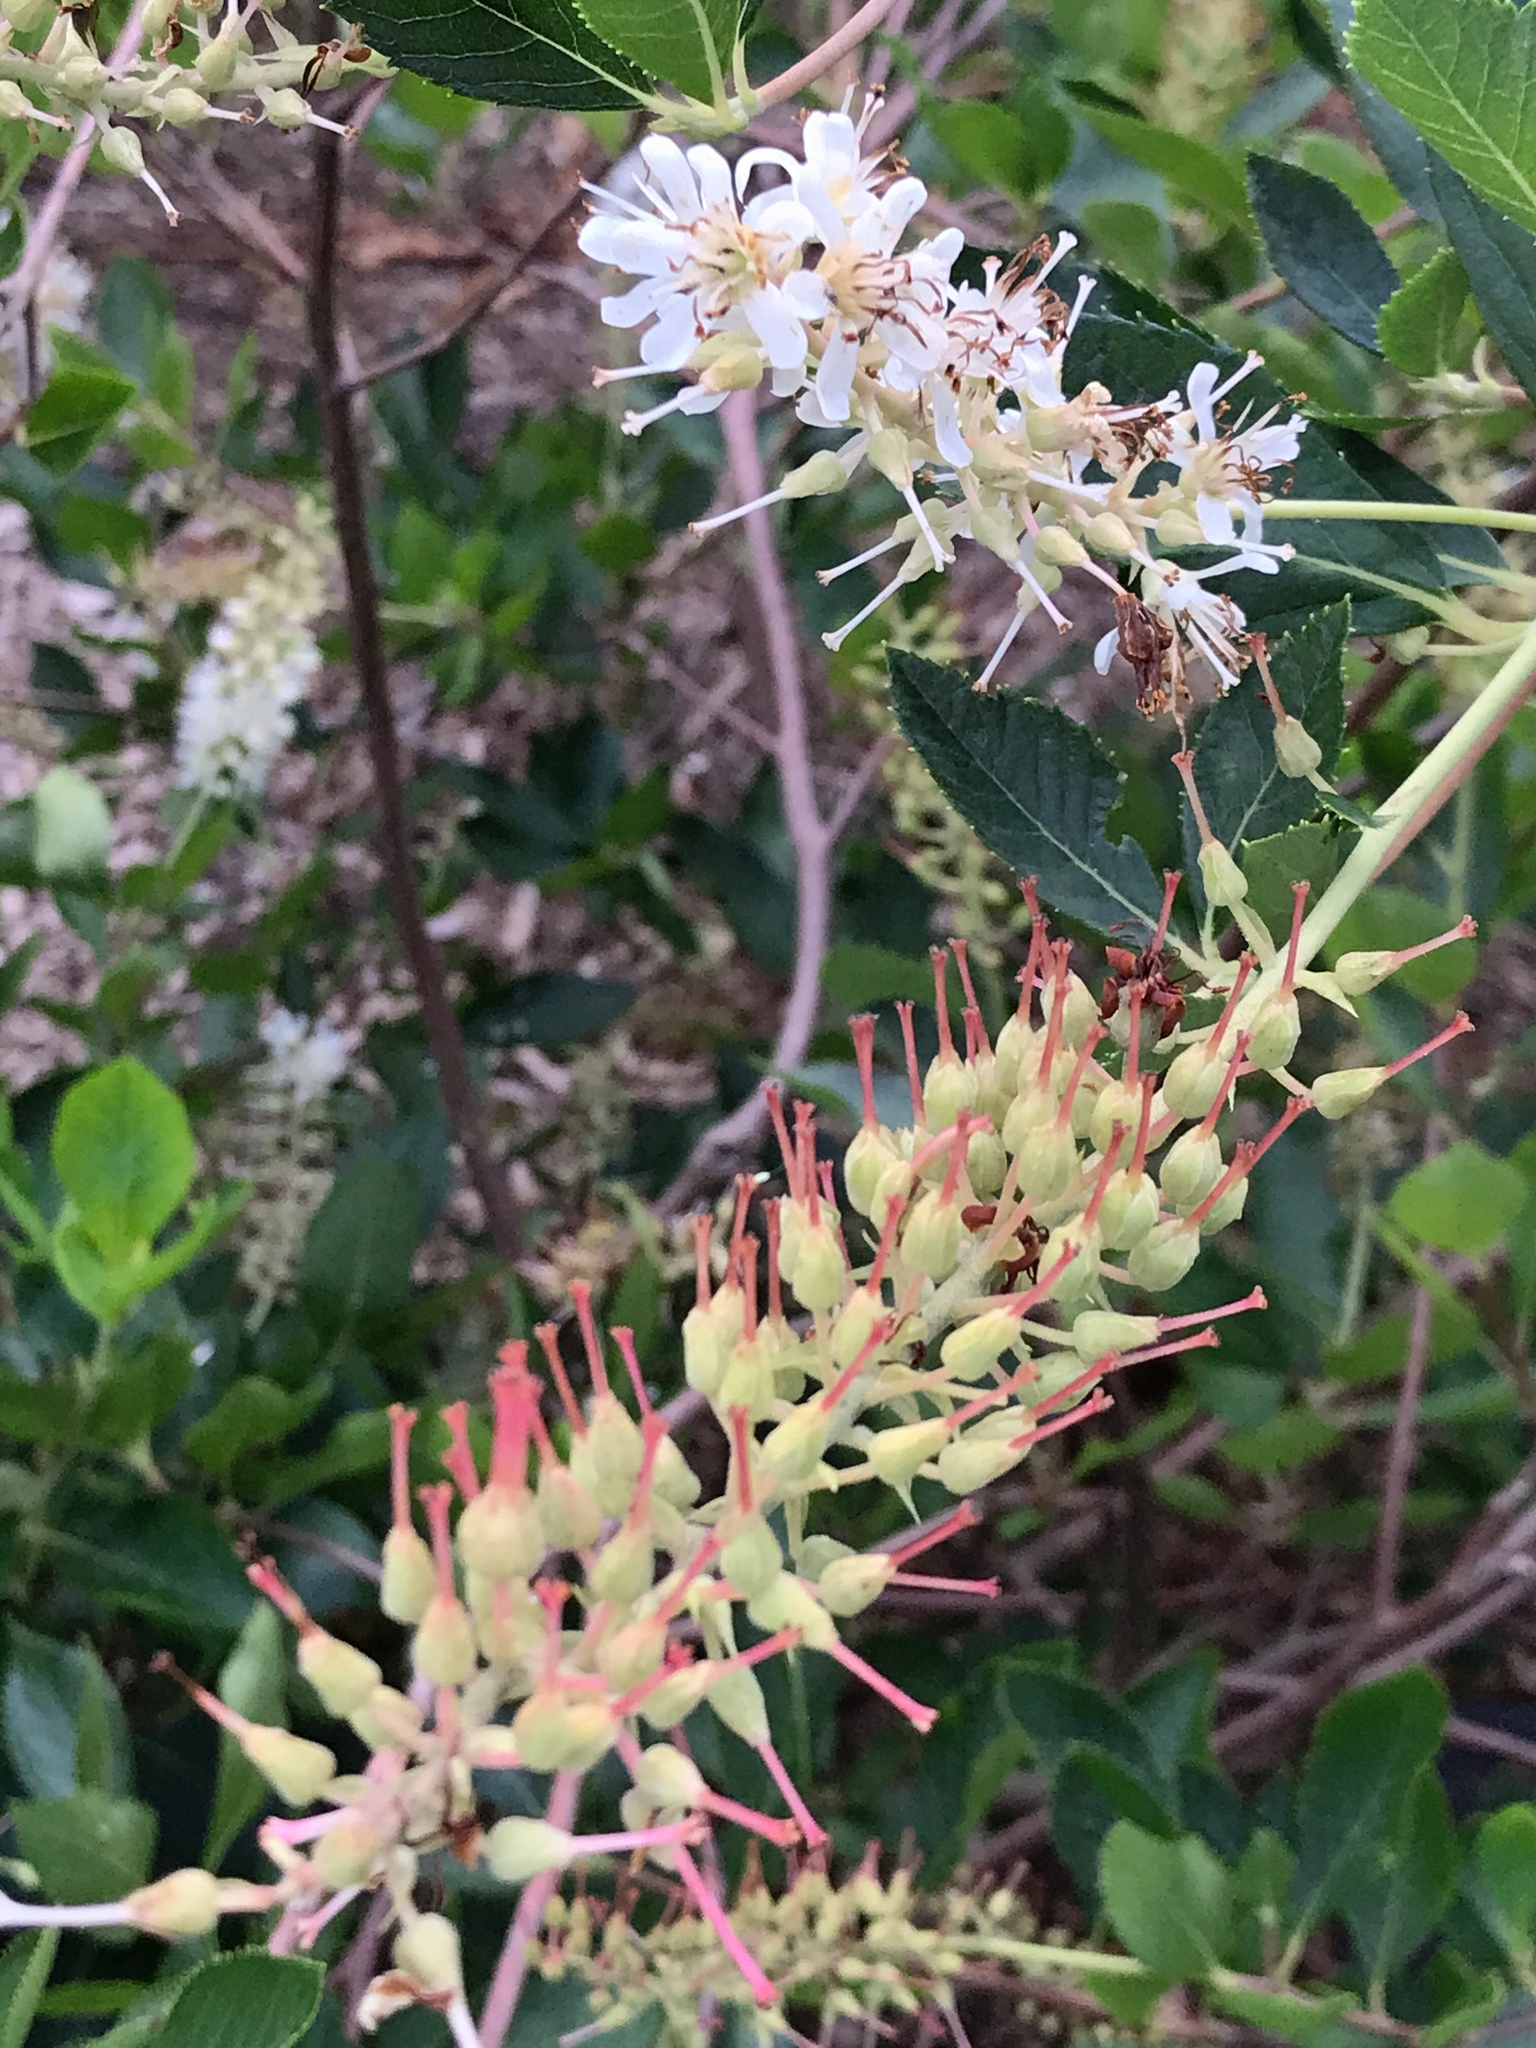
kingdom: Plantae
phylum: Tracheophyta
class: Magnoliopsida
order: Ericales
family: Clethraceae
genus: Clethra
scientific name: Clethra alnifolia
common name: Sweet pepperbush
